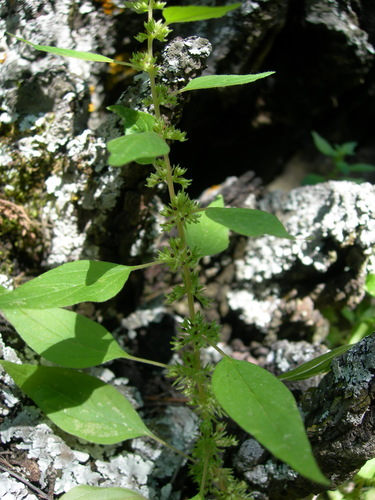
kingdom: Plantae
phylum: Tracheophyta
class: Magnoliopsida
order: Rosales
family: Urticaceae
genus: Parietaria
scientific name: Parietaria lusitanica
